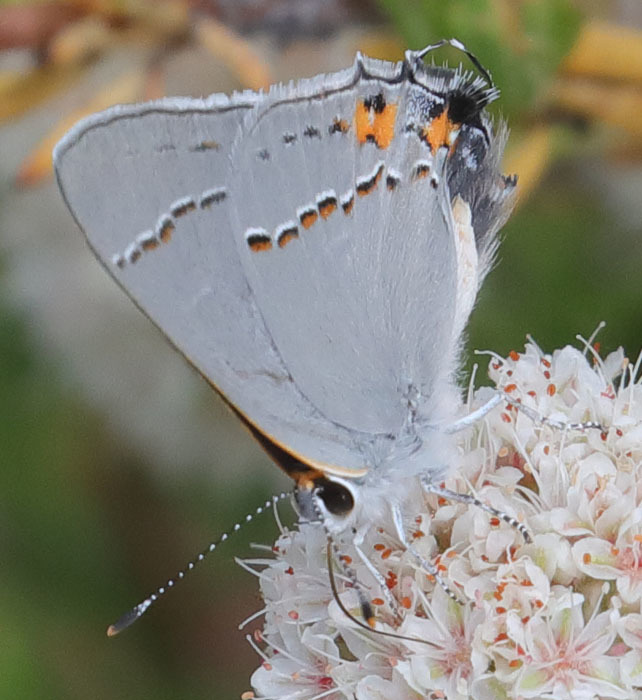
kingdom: Animalia
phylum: Arthropoda
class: Insecta
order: Lepidoptera
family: Lycaenidae
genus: Strymon
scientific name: Strymon melinus
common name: Gray hairstreak
